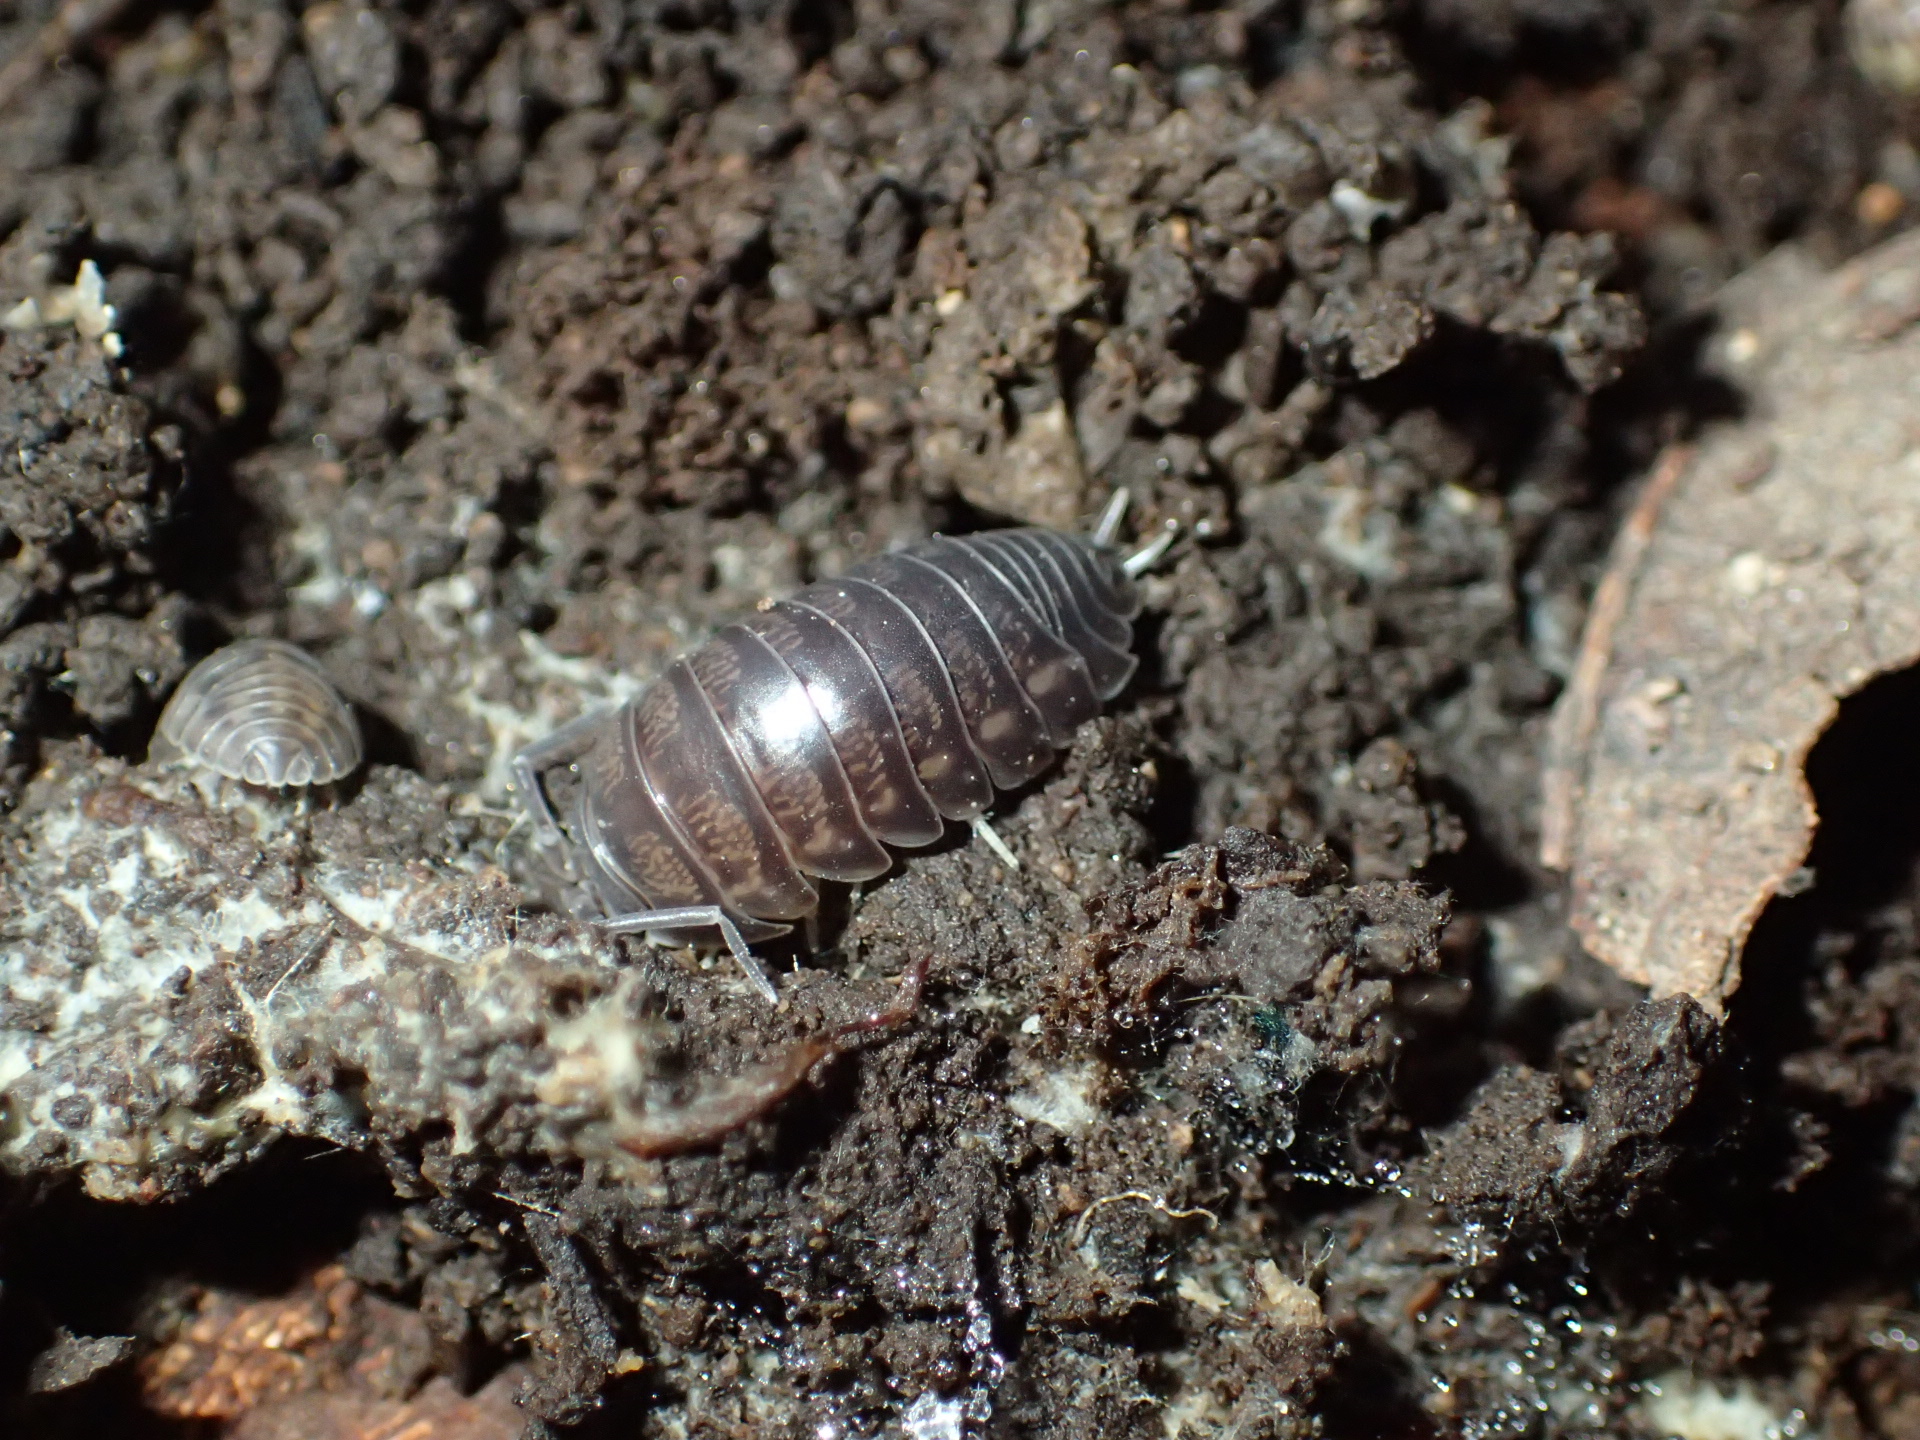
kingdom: Animalia
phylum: Arthropoda
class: Malacostraca
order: Isopoda
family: Cylisticidae
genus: Cylisticus
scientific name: Cylisticus convexus
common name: Curly woodlouse
